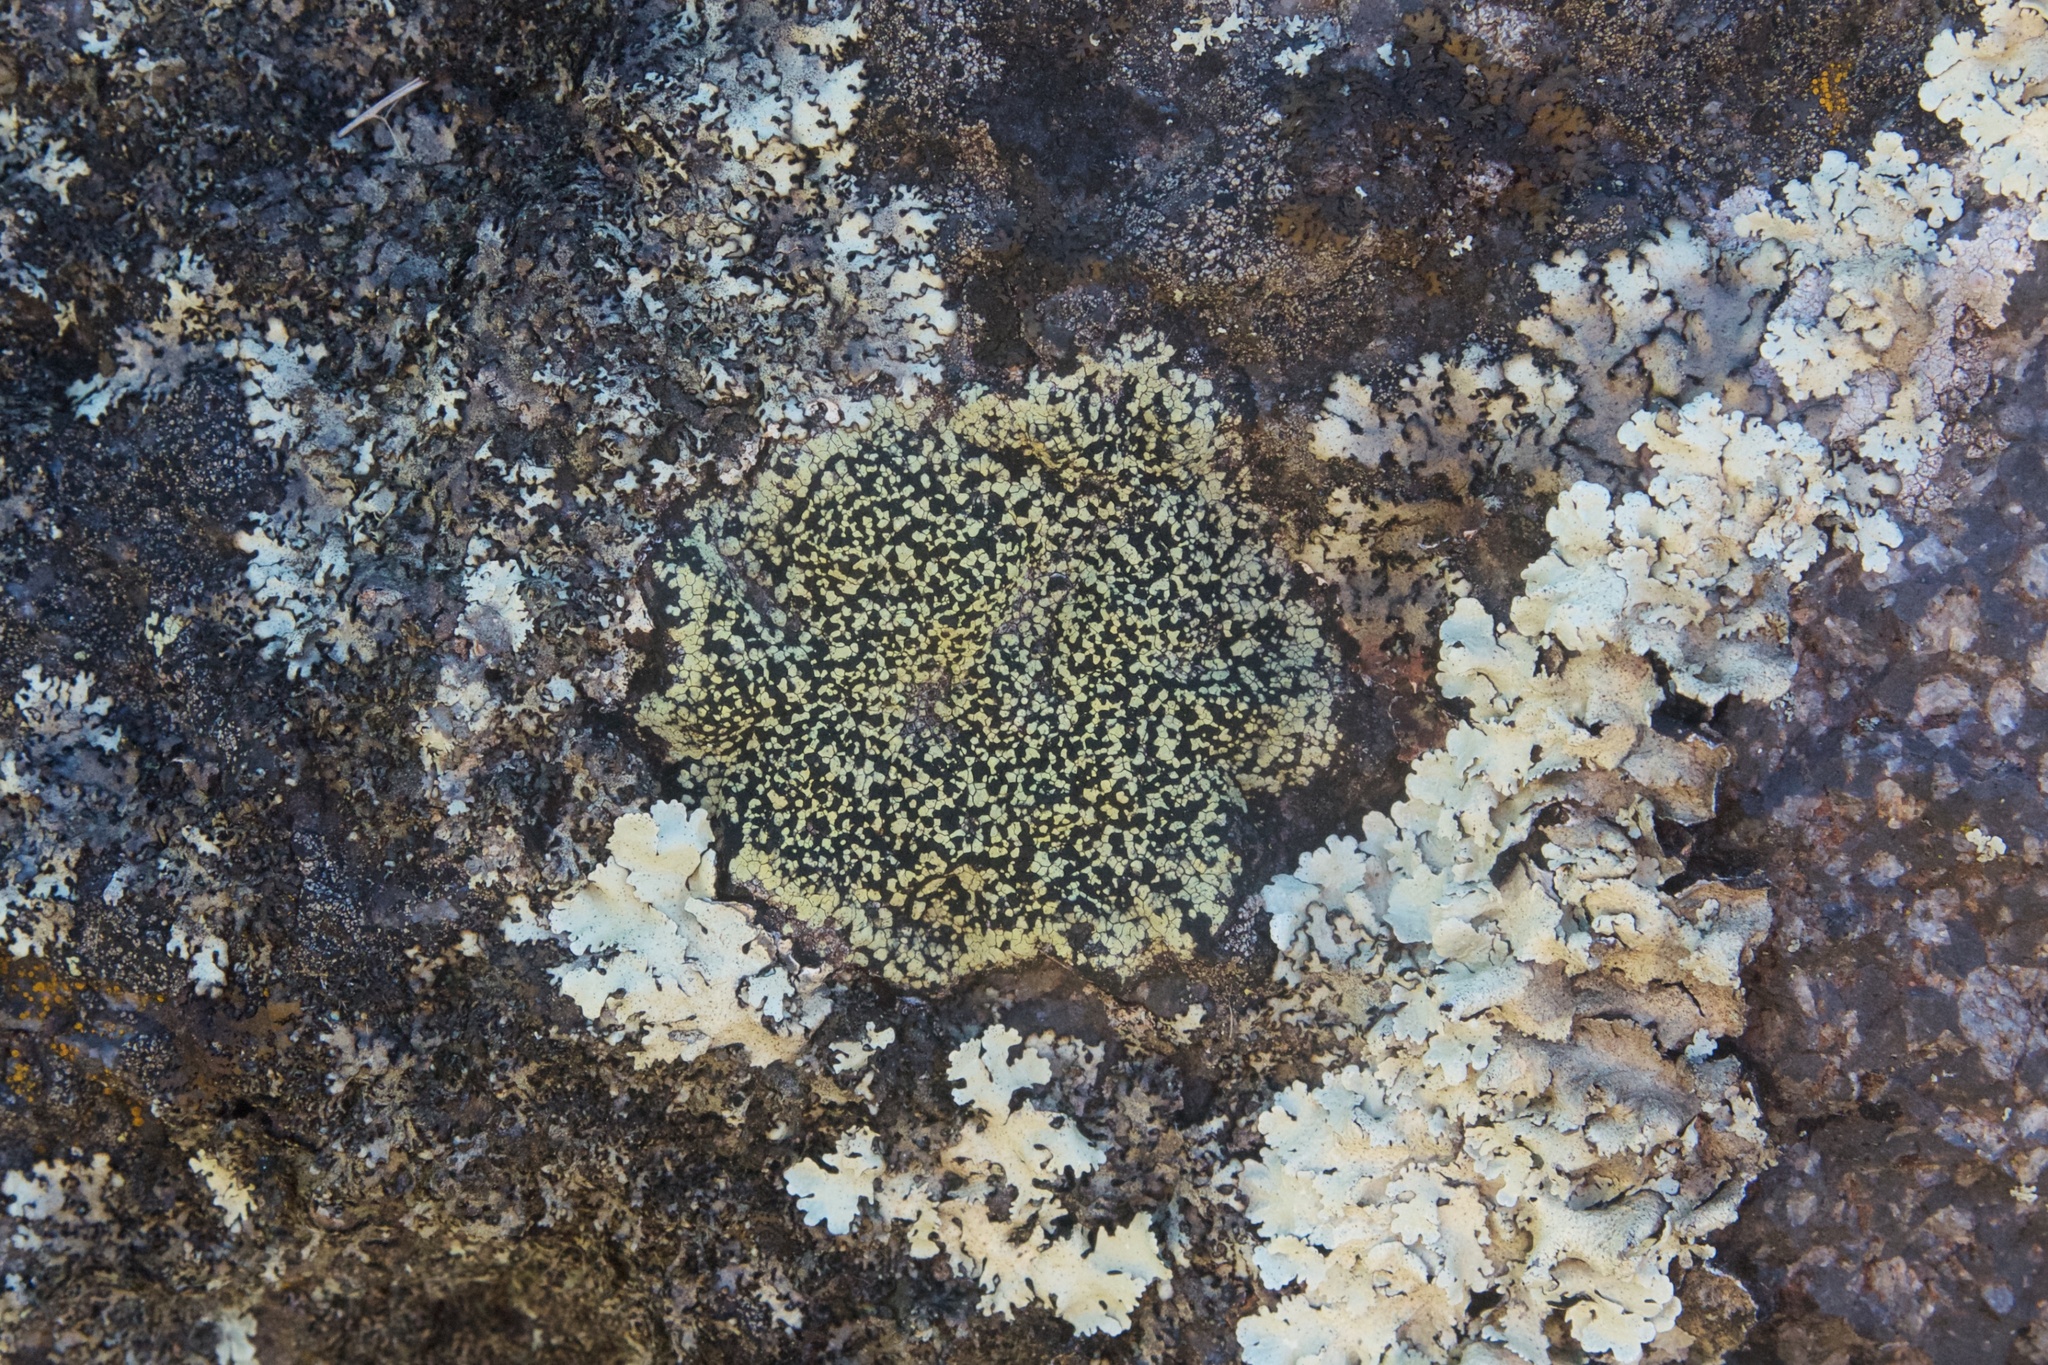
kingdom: Fungi
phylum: Ascomycota
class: Lecanoromycetes
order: Rhizocarpales
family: Rhizocarpaceae
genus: Rhizocarpon
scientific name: Rhizocarpon geographicum
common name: Yellow map lichen
